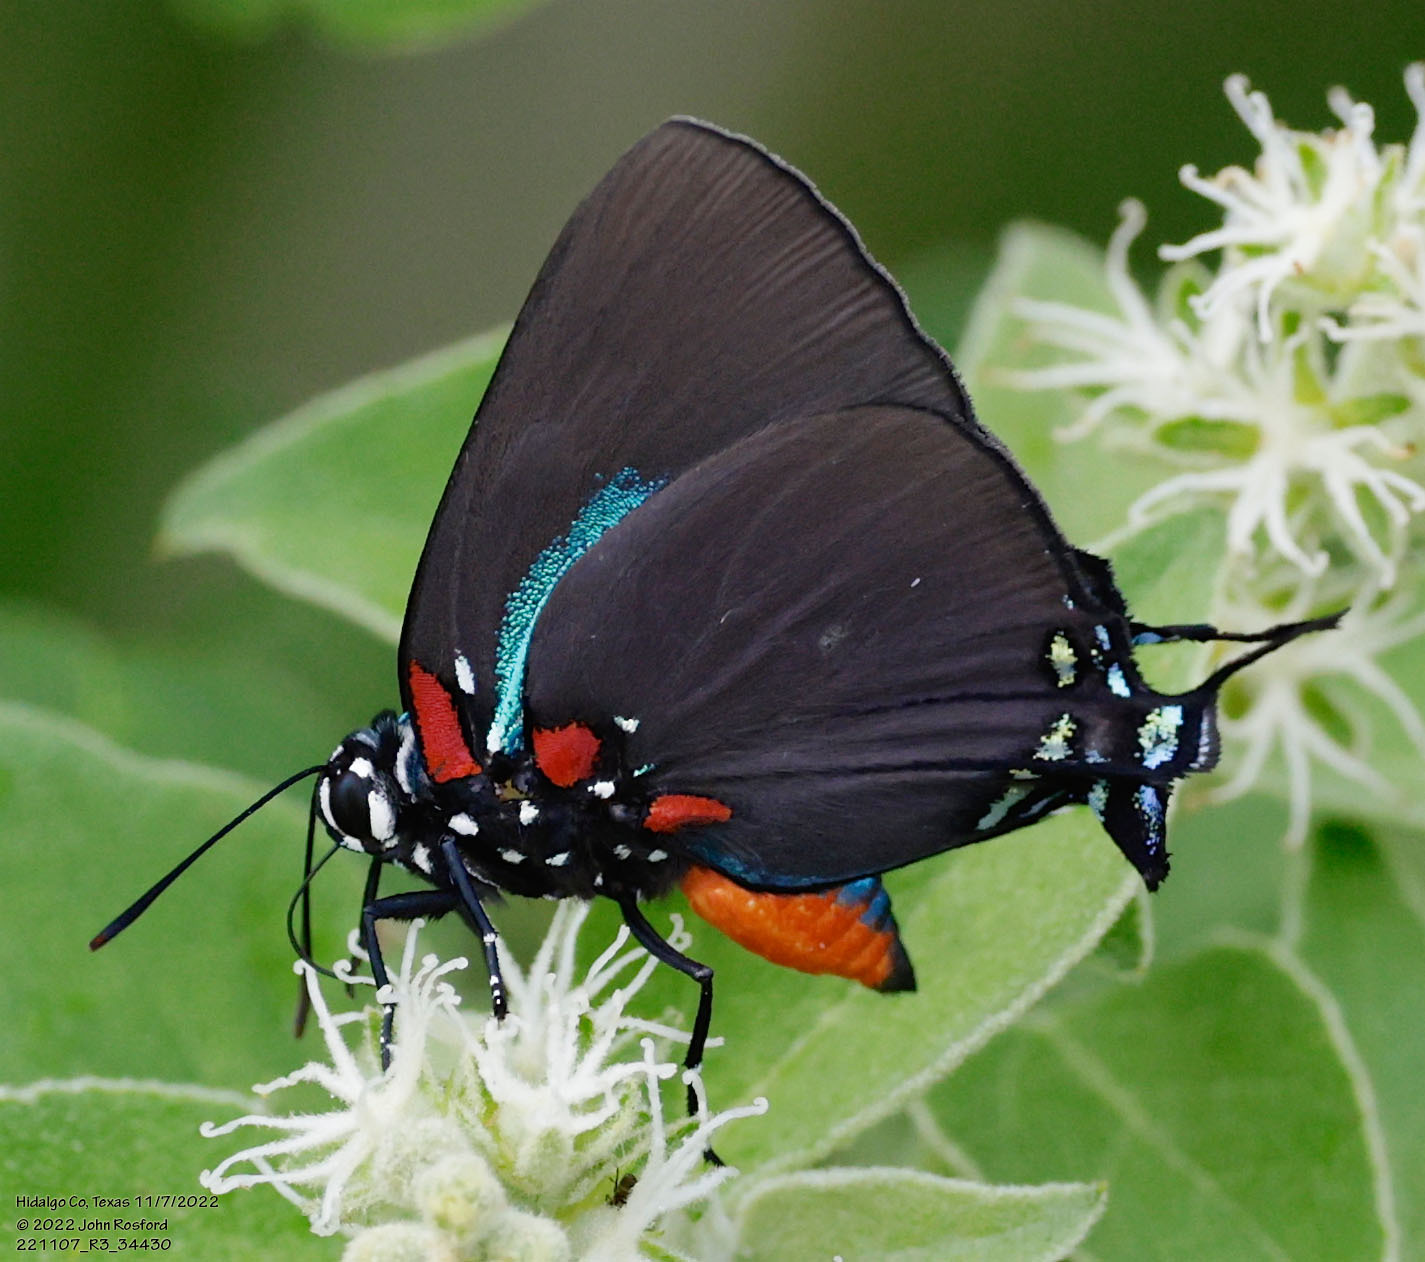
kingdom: Animalia
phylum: Arthropoda
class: Insecta
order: Lepidoptera
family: Lycaenidae
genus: Atlides
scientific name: Atlides halesus
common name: Great purple hairstreak
